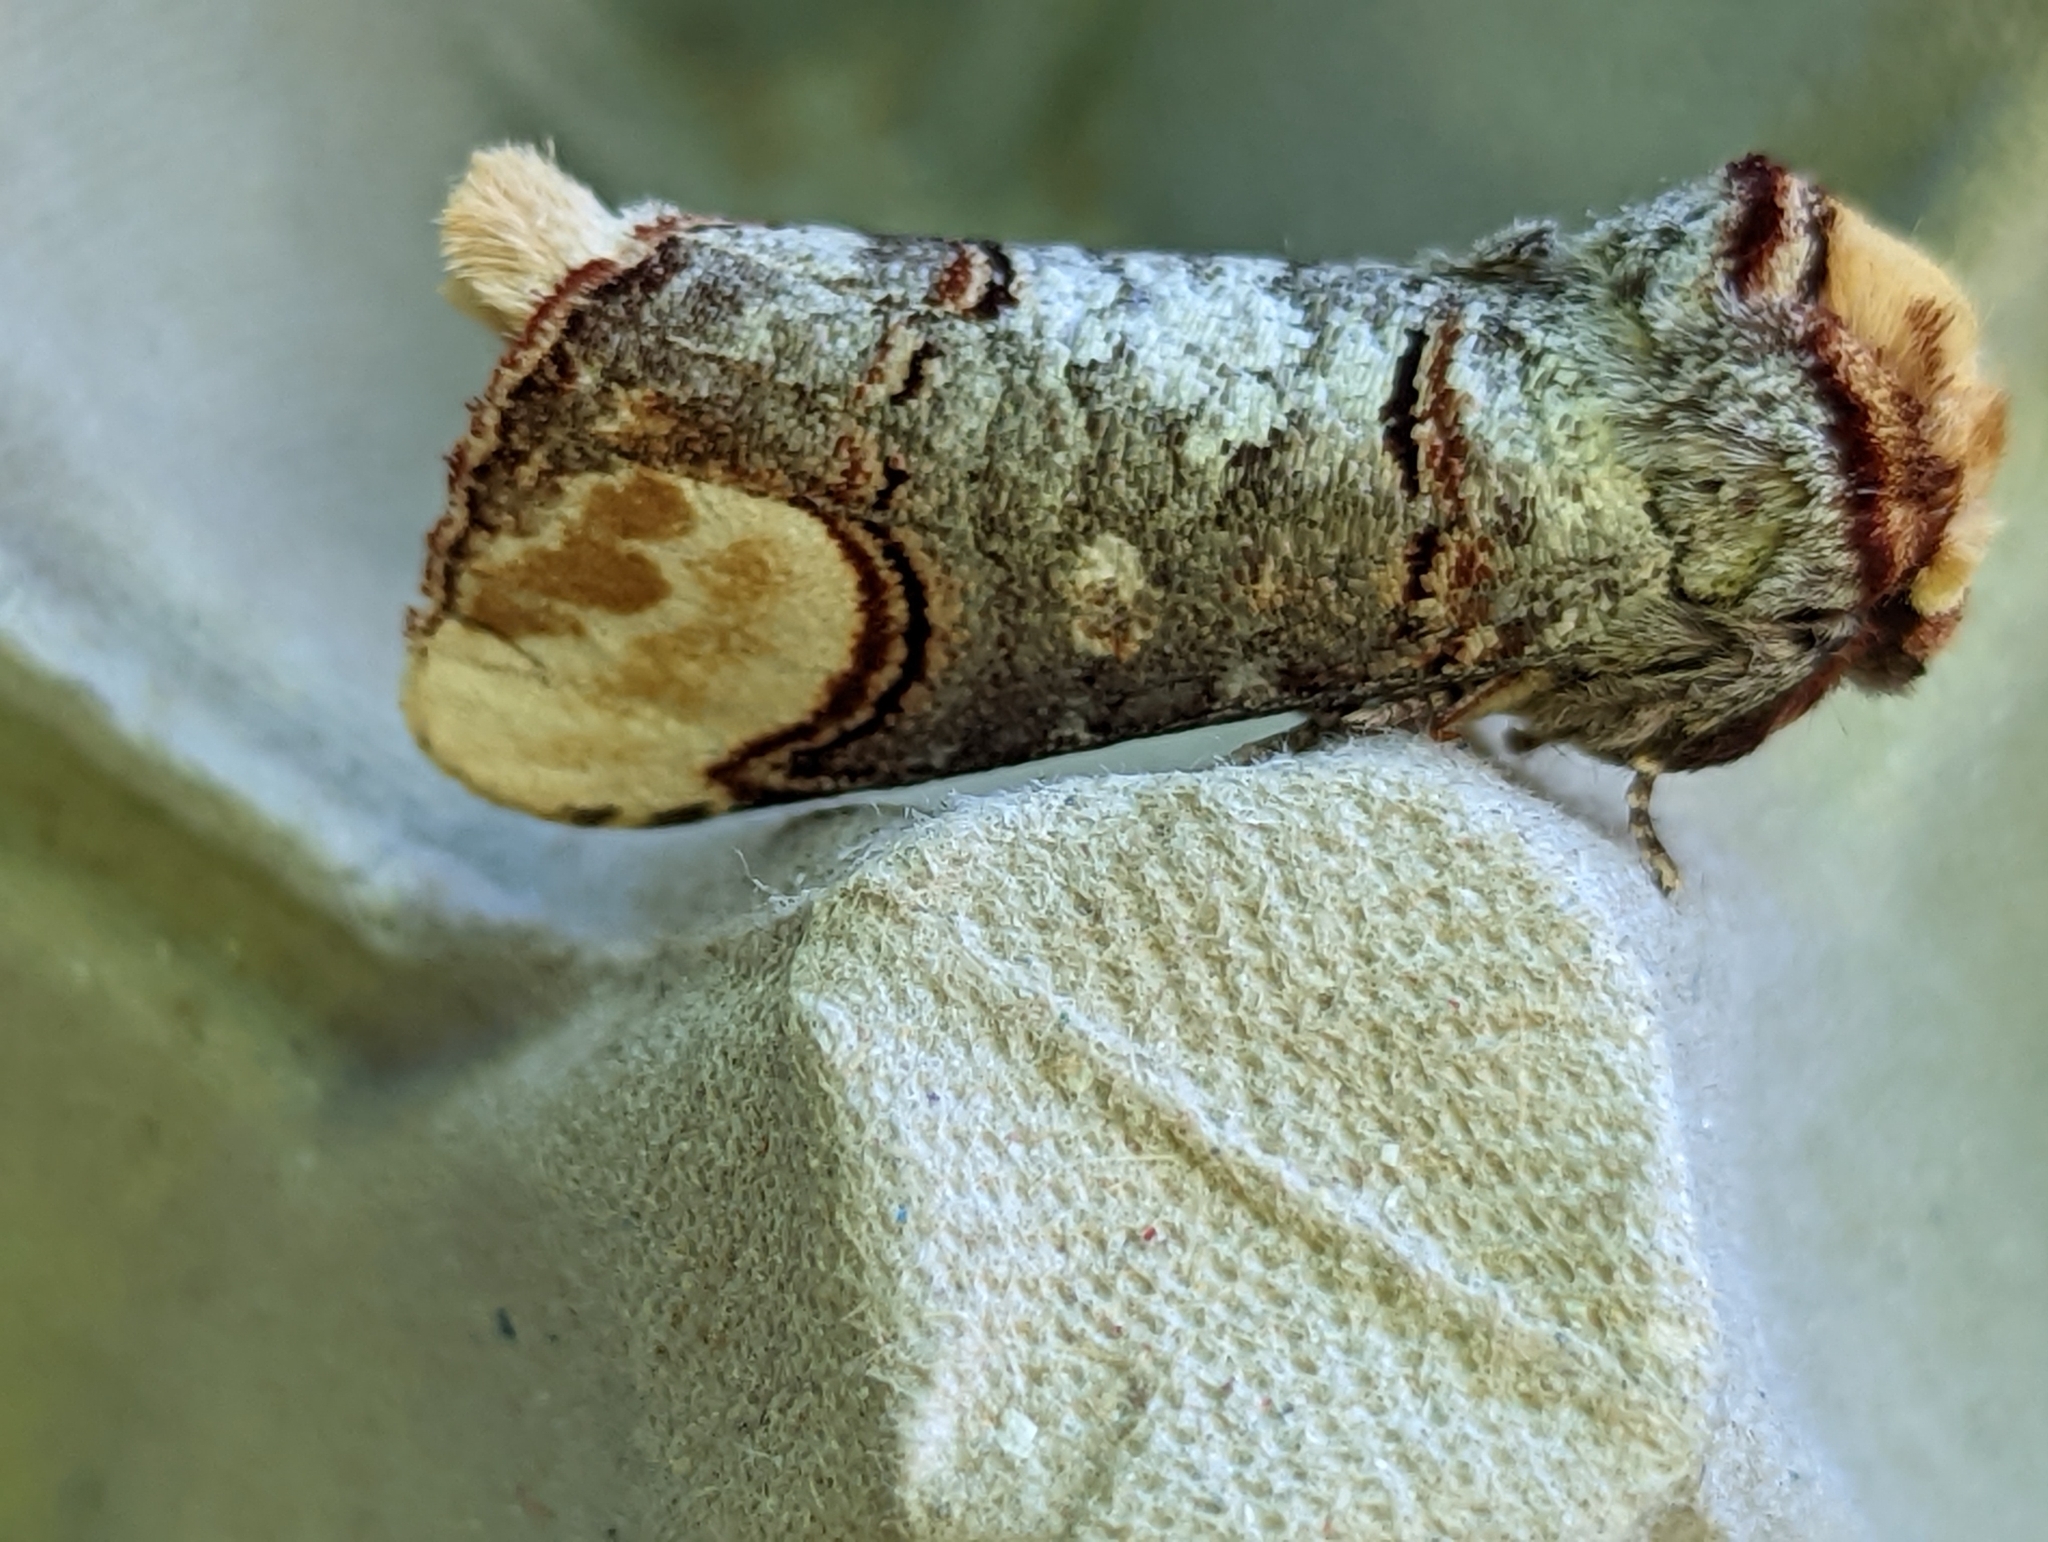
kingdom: Animalia
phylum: Arthropoda
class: Insecta
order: Lepidoptera
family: Notodontidae
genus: Phalera
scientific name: Phalera bucephala
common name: Buff-tip
